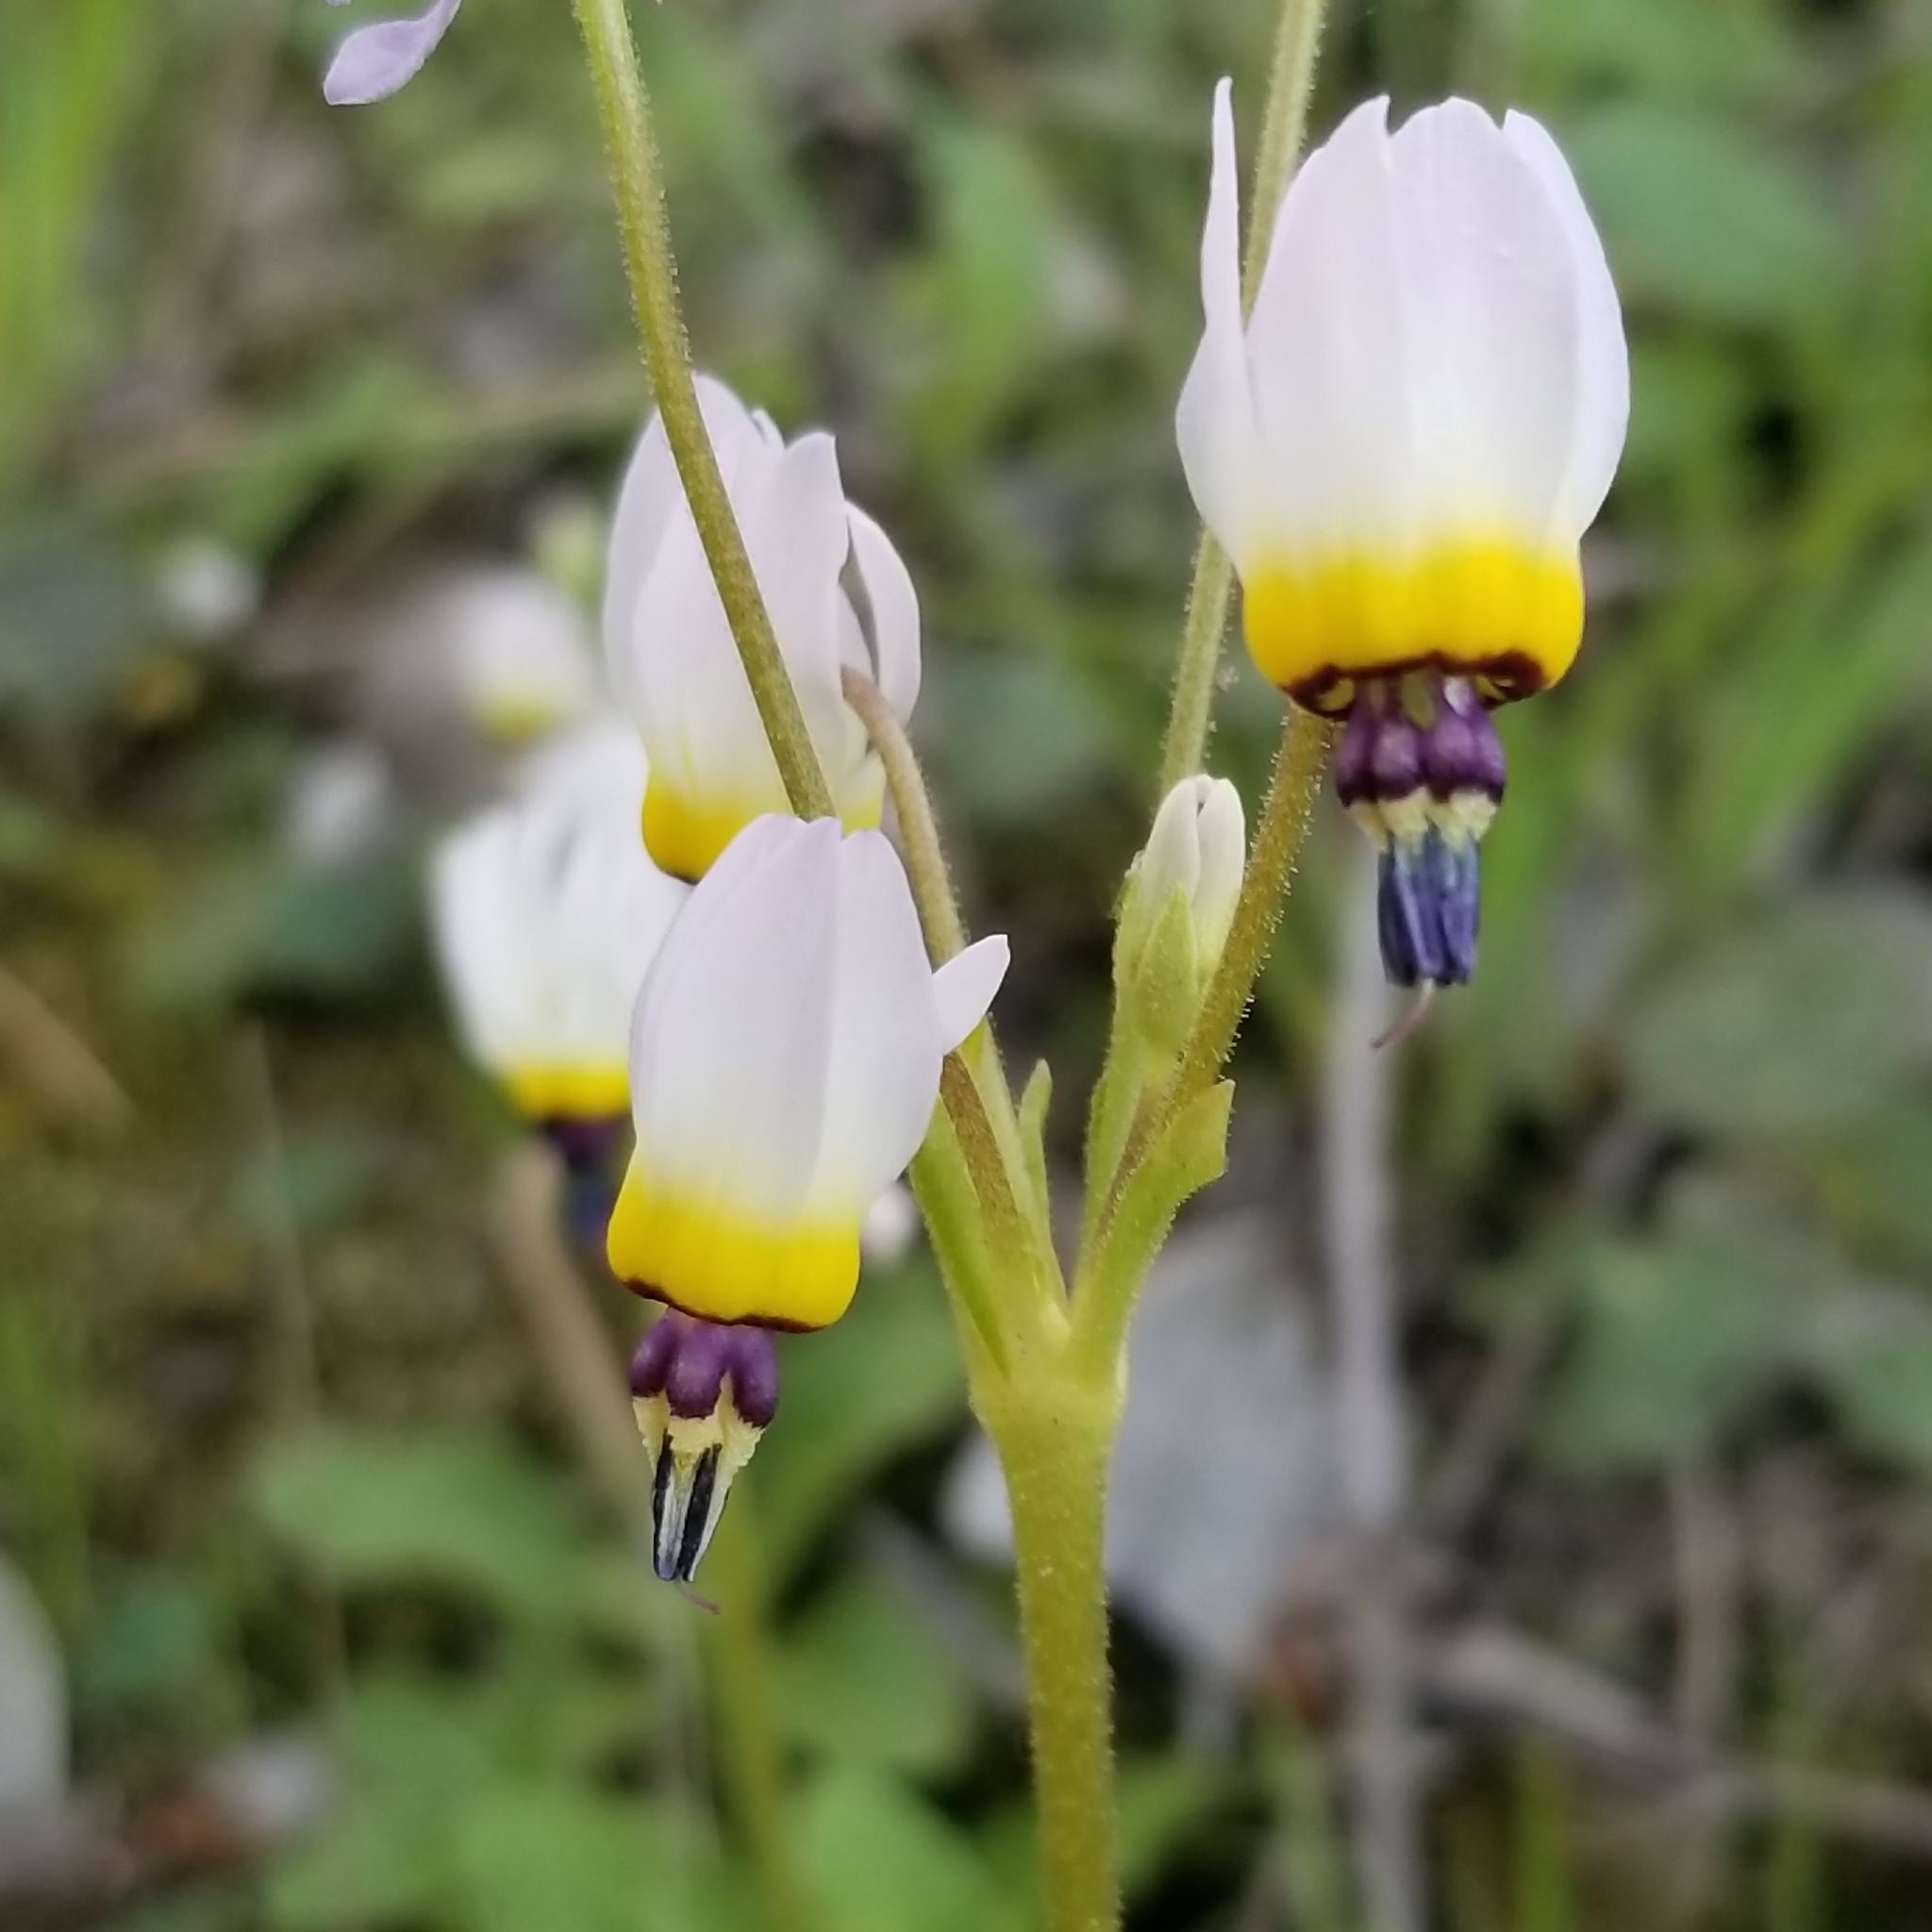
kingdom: Plantae
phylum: Tracheophyta
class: Magnoliopsida
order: Ericales
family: Primulaceae
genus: Dodecatheon
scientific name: Dodecatheon clevelandii
